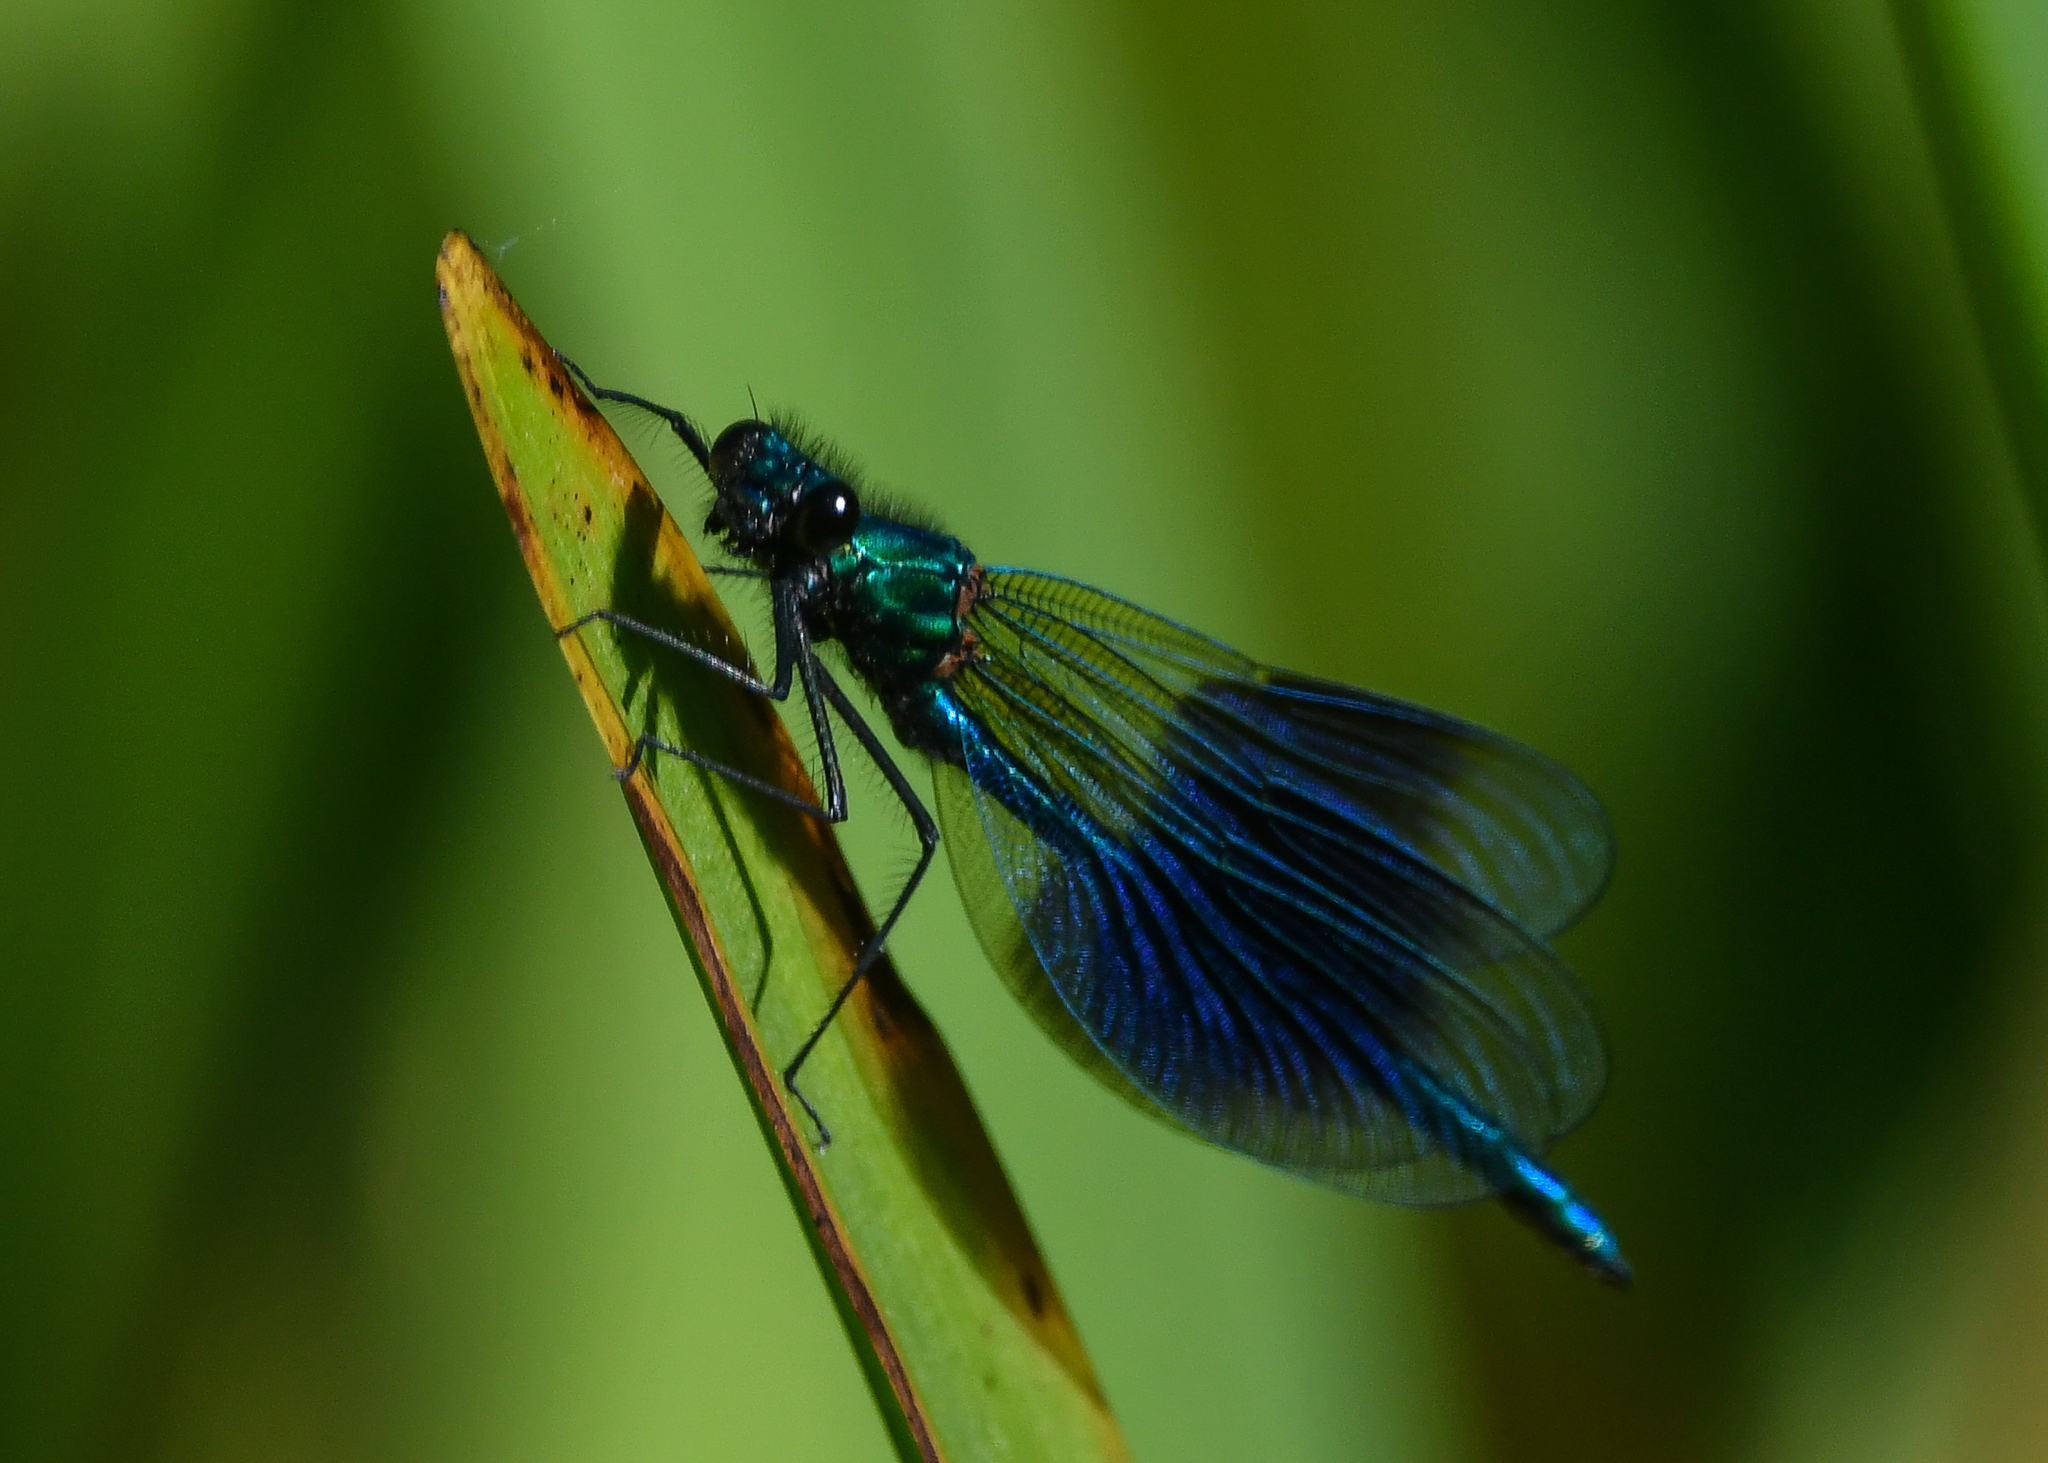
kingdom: Animalia
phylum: Arthropoda
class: Insecta
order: Odonata
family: Calopterygidae
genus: Calopteryx
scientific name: Calopteryx splendens
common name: Banded demoiselle
